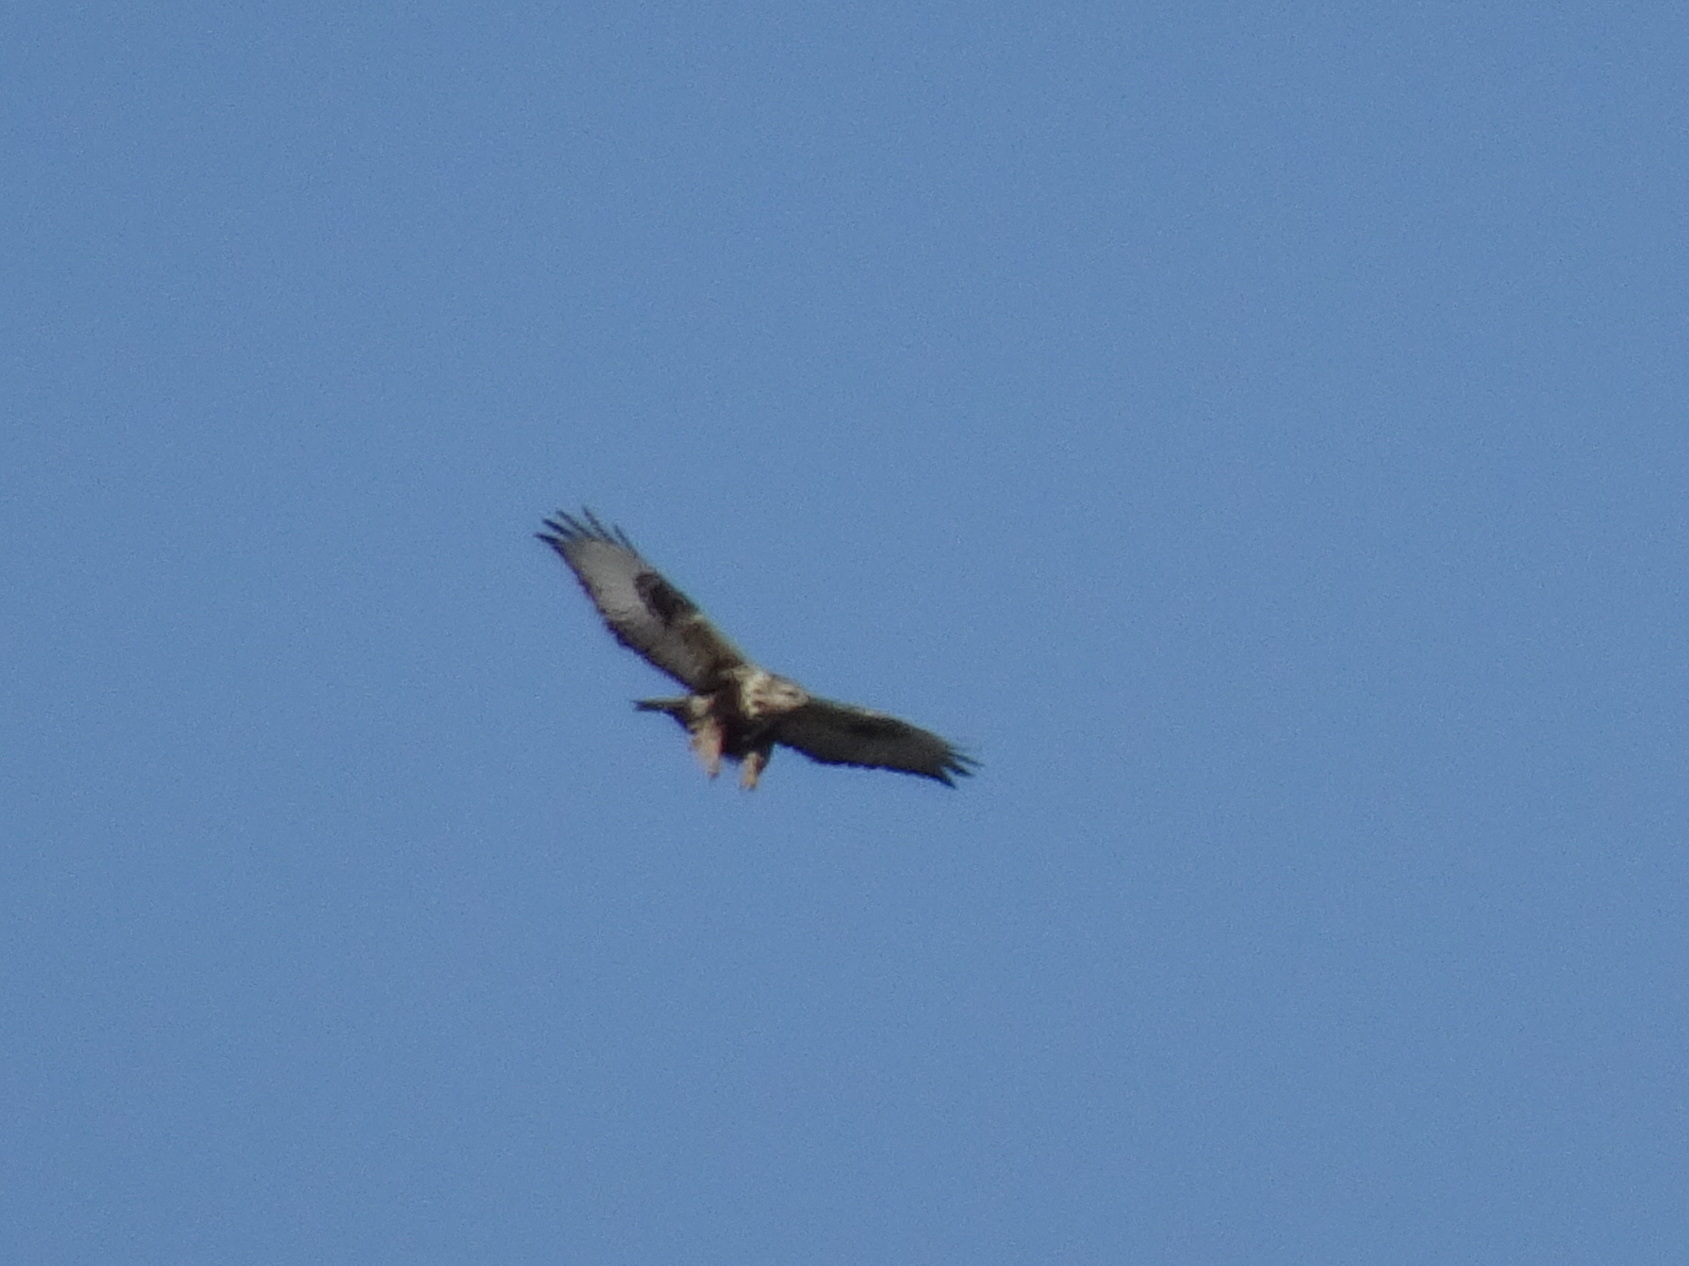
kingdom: Animalia
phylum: Chordata
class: Aves
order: Accipitriformes
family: Accipitridae
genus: Buteo
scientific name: Buteo lagopus
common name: Rough-legged buzzard
